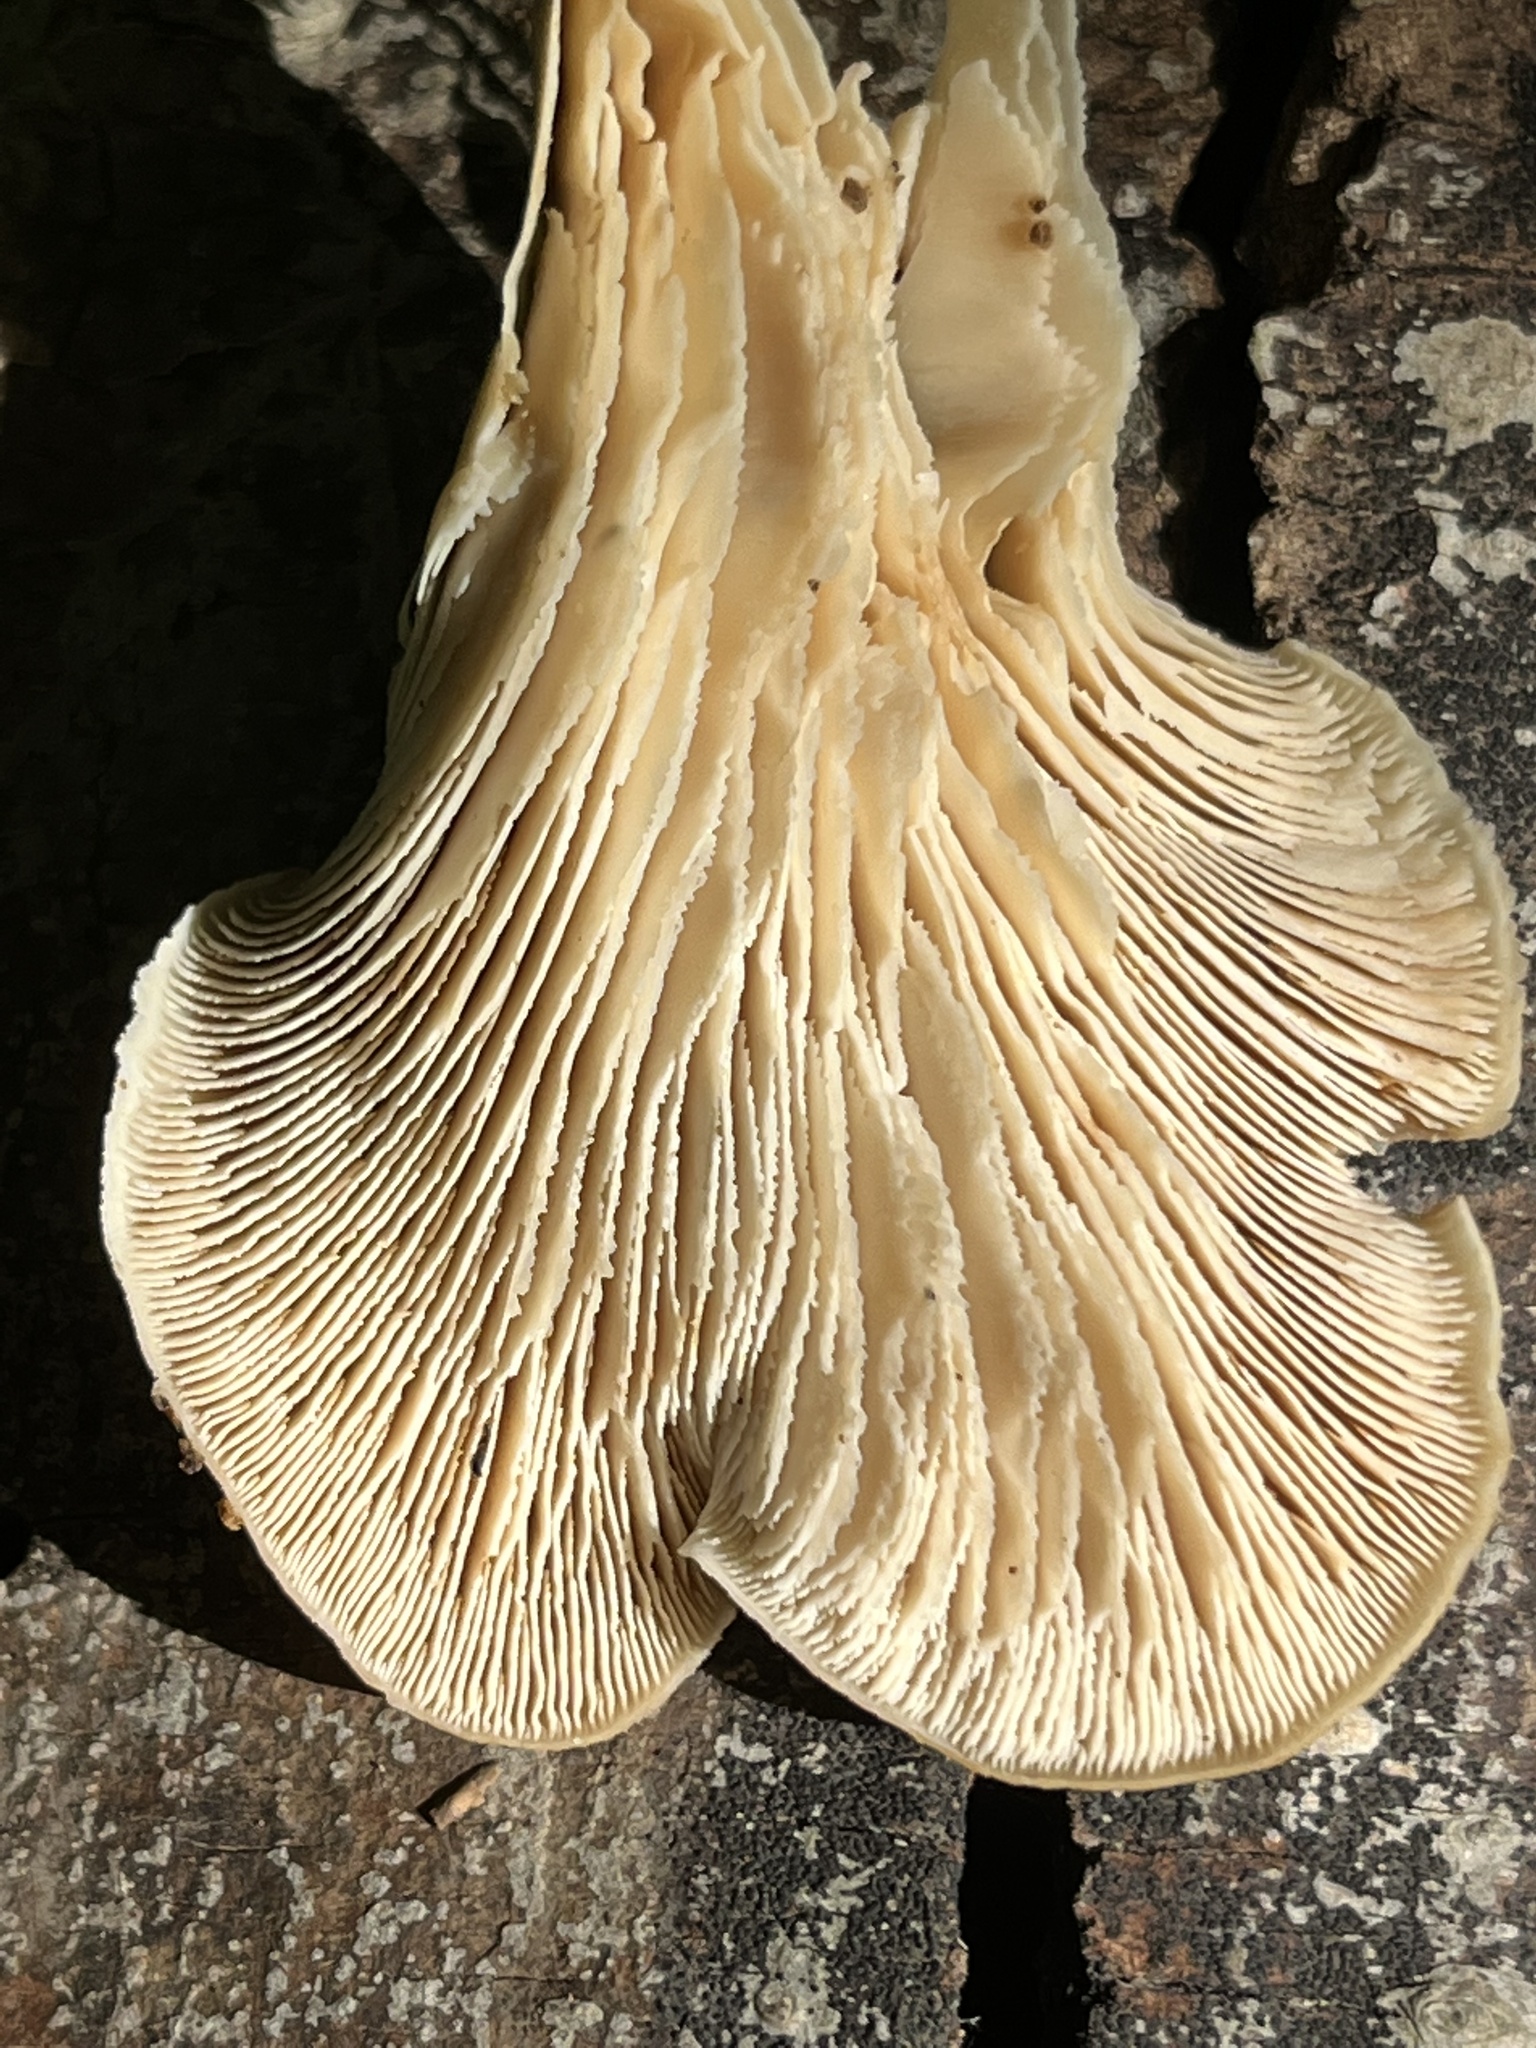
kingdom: Fungi
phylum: Basidiomycota
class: Agaricomycetes
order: Russulales
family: Auriscalpiaceae
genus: Lentinellus
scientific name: Lentinellus ursinus
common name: Bear lentinus
